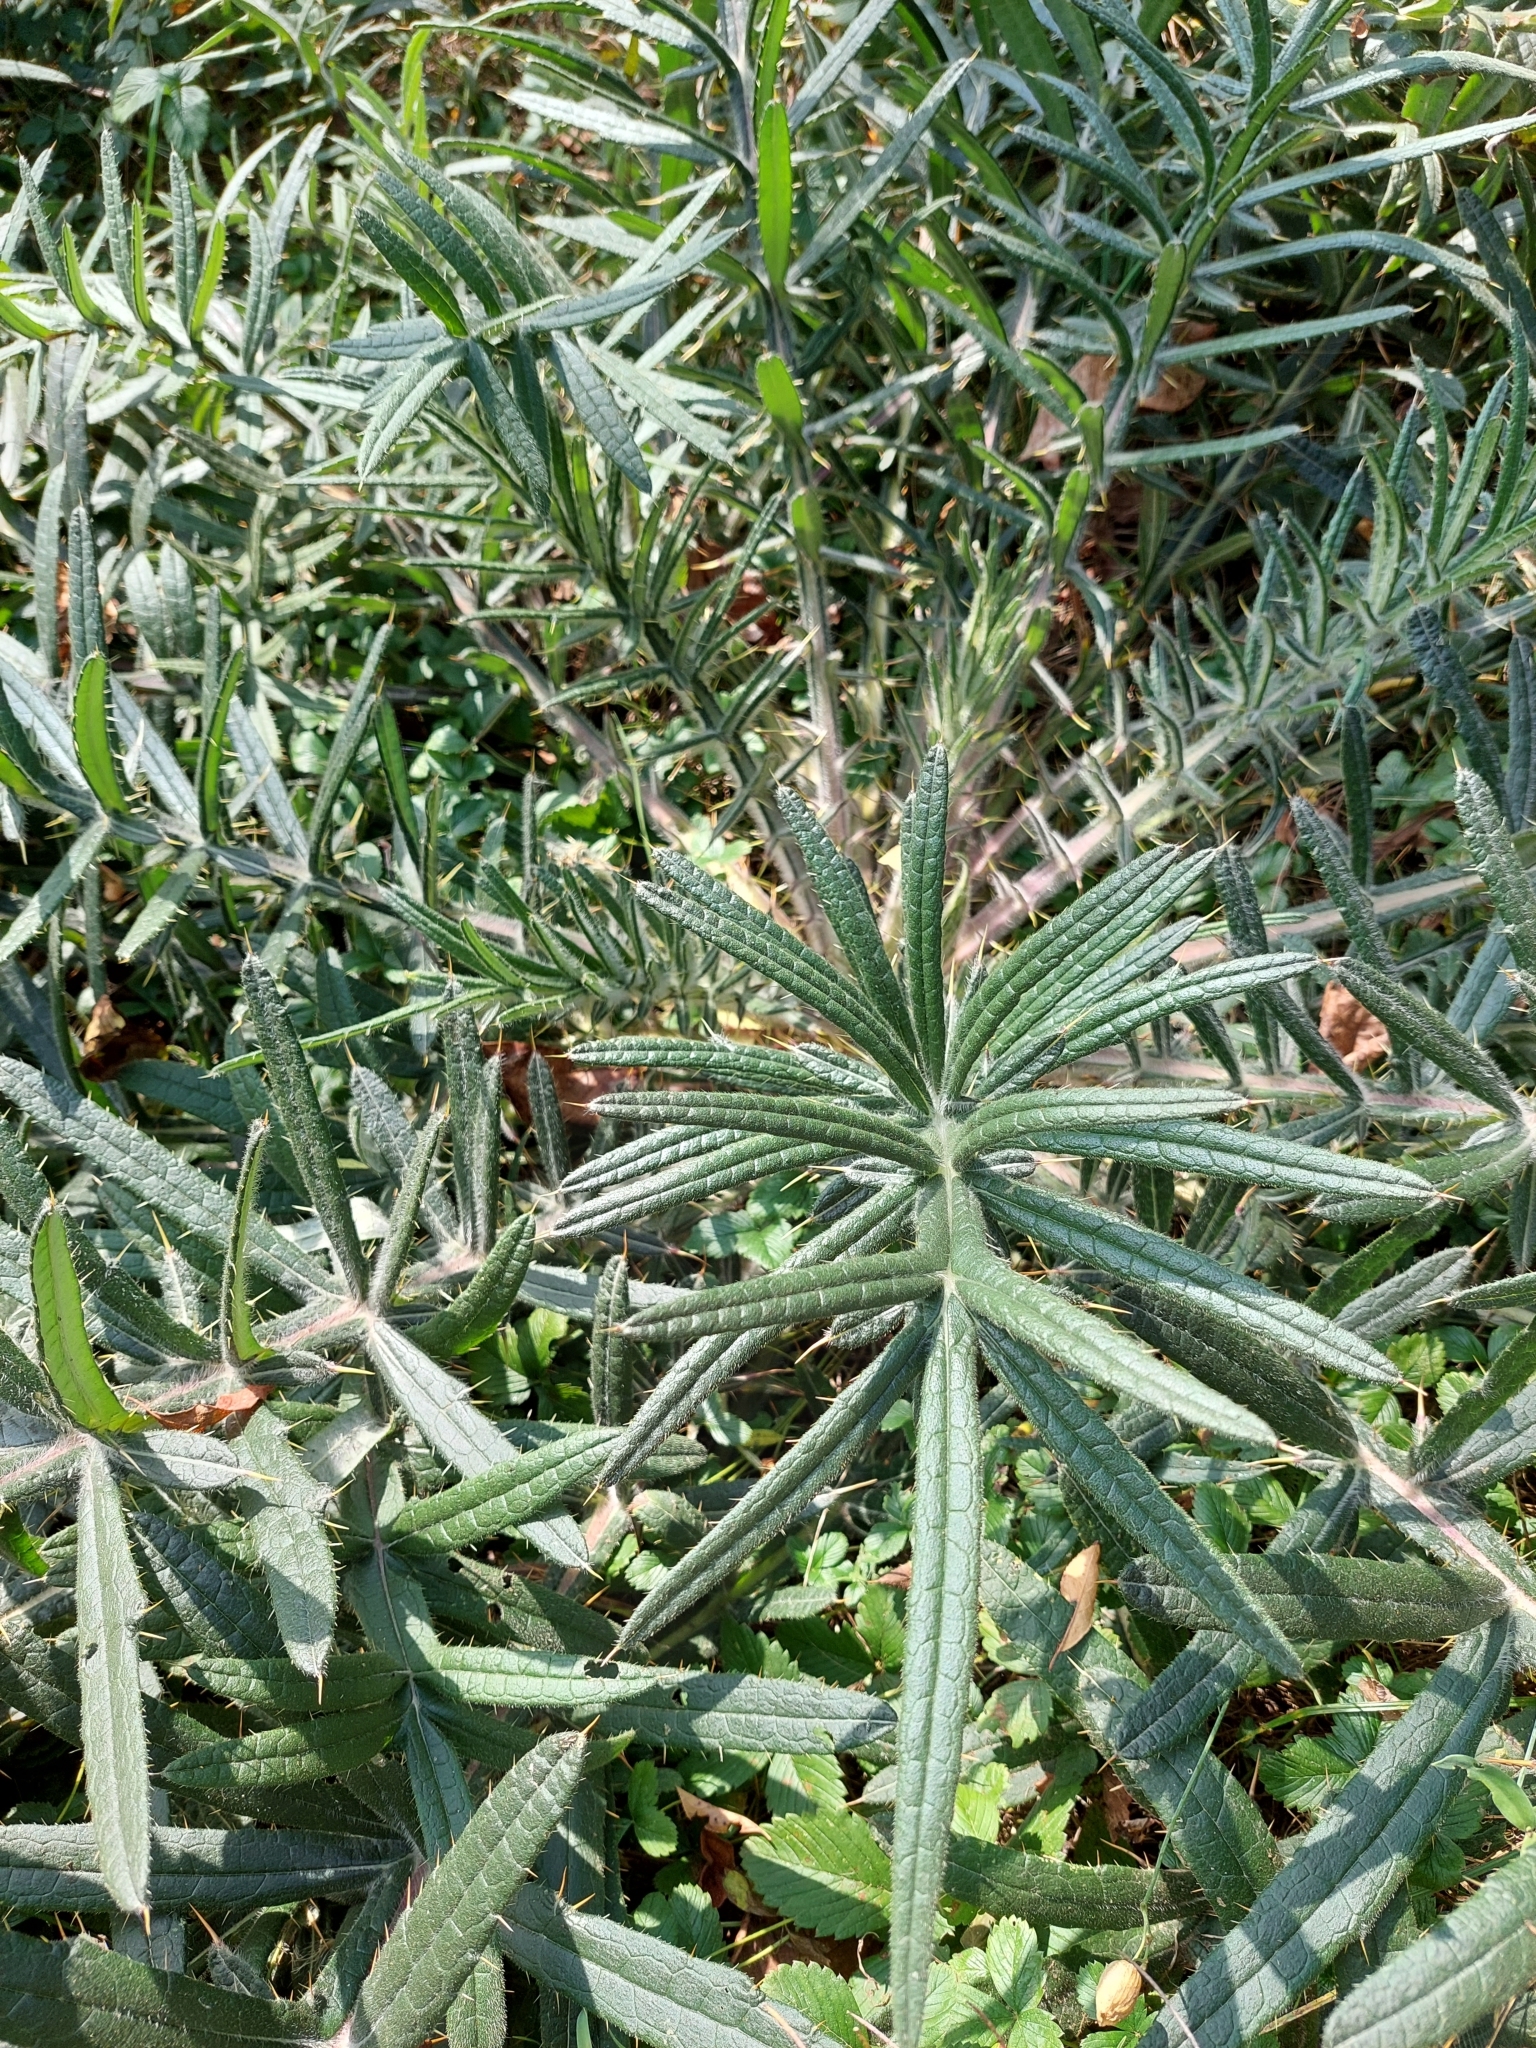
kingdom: Plantae
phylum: Tracheophyta
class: Magnoliopsida
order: Asterales
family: Asteraceae
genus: Lophiolepis
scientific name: Lophiolepis eriophora
